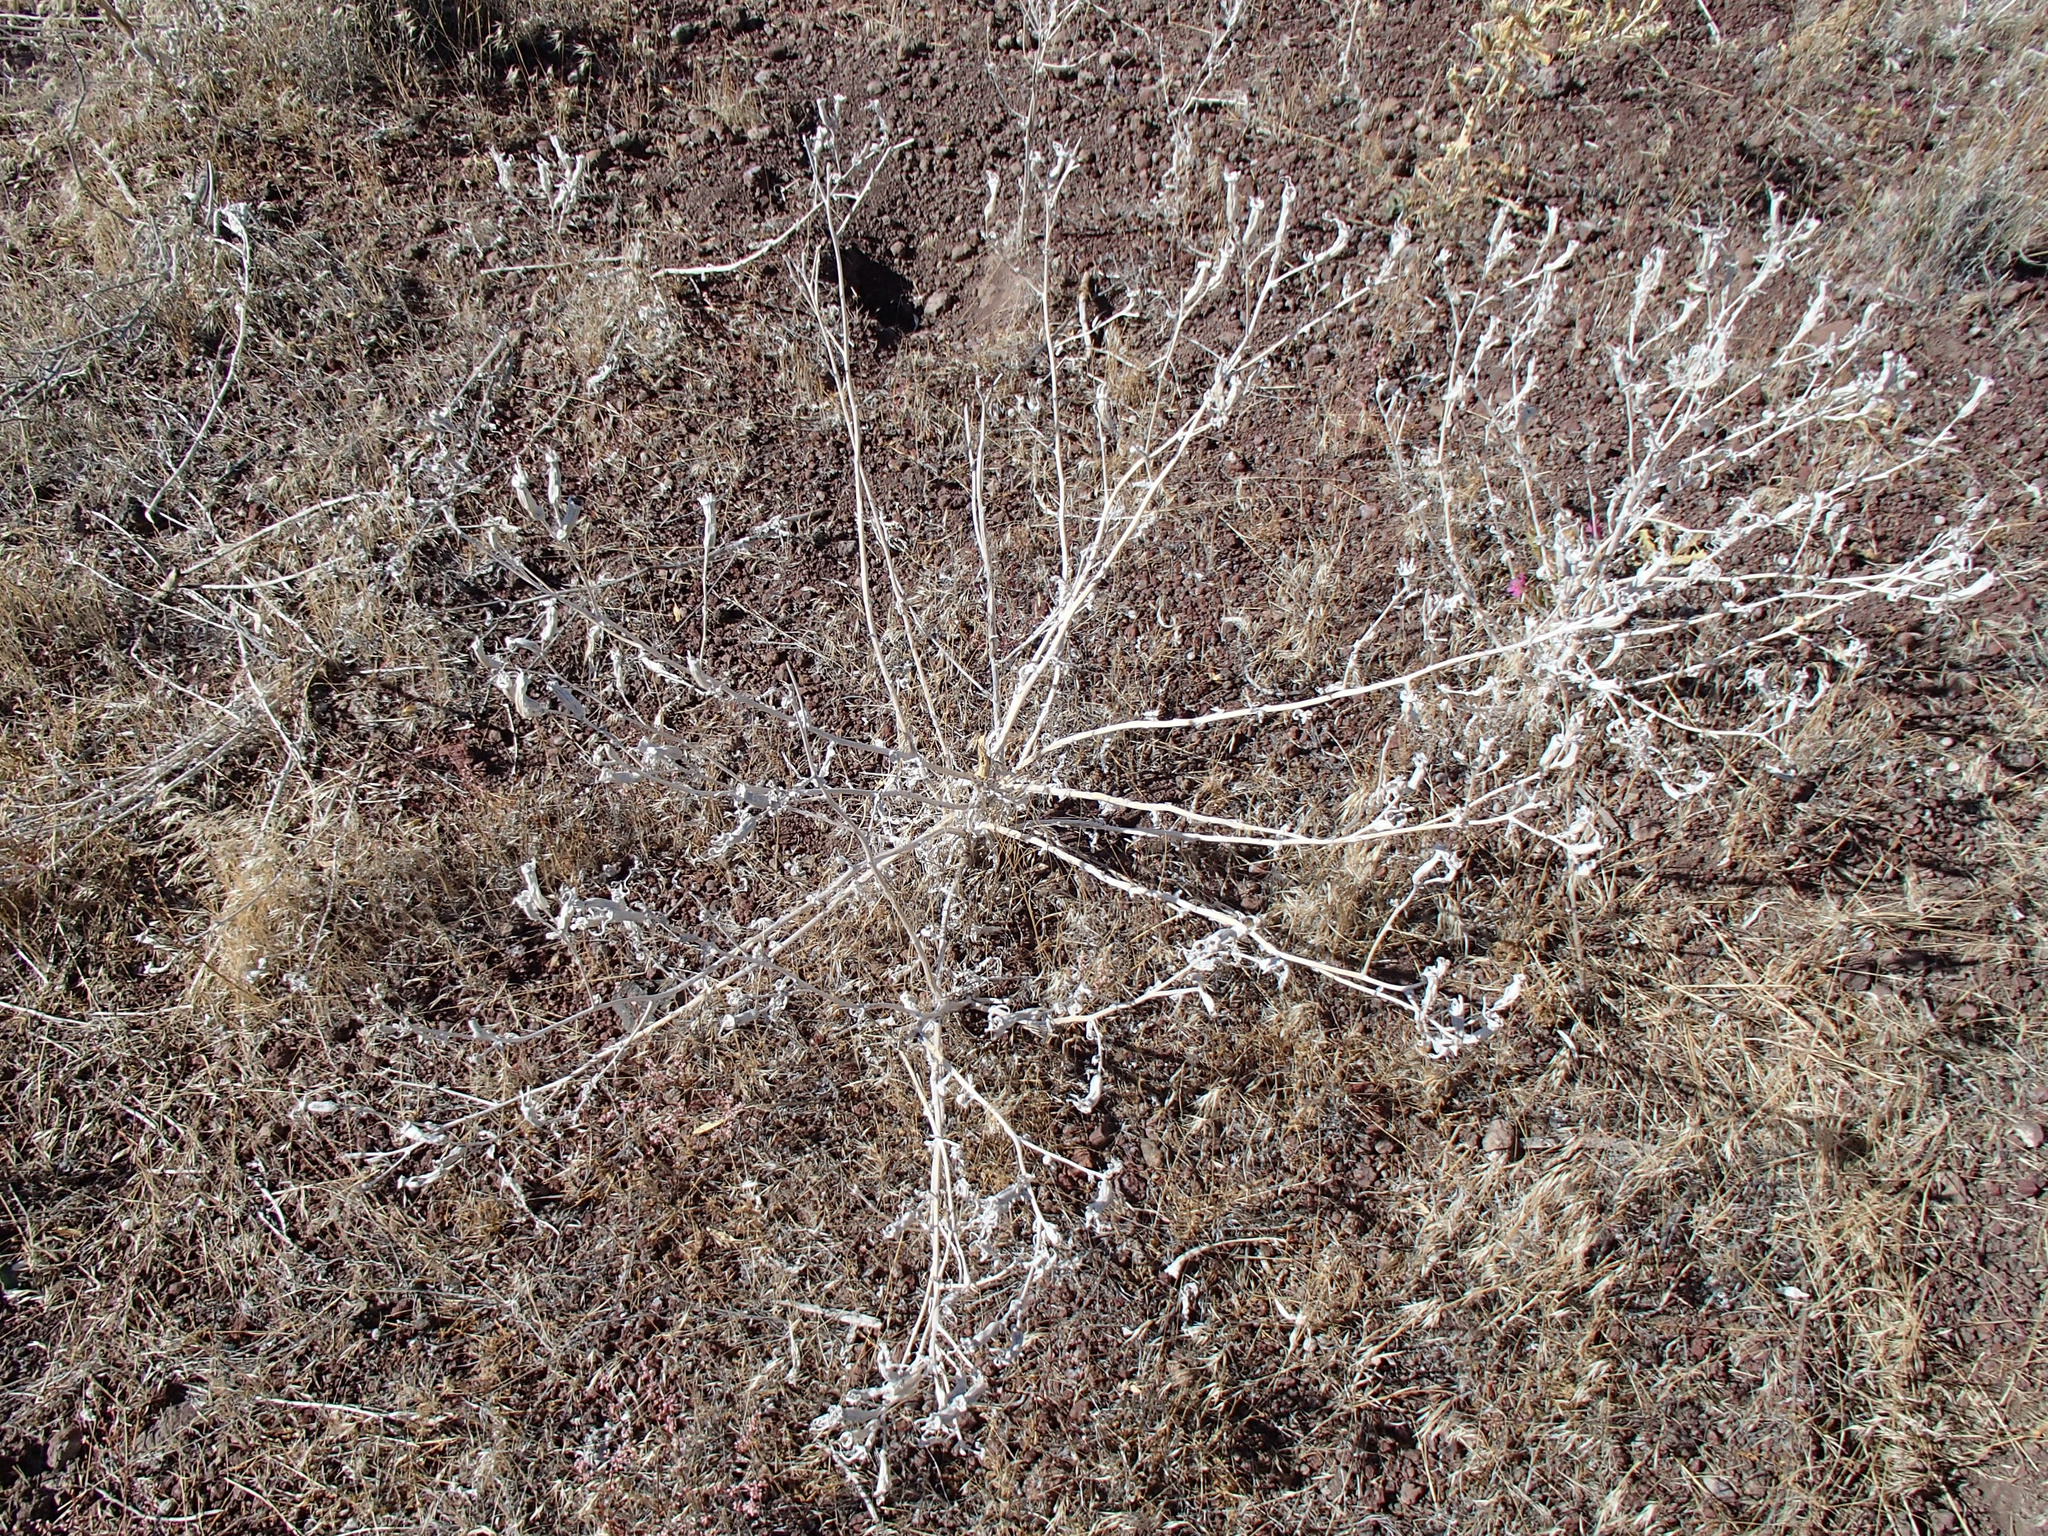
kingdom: Plantae
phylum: Tracheophyta
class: Magnoliopsida
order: Cornales
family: Loasaceae
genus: Mentzelia
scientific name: Mentzelia laevicaulis
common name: Smooth-stem blazingstar
